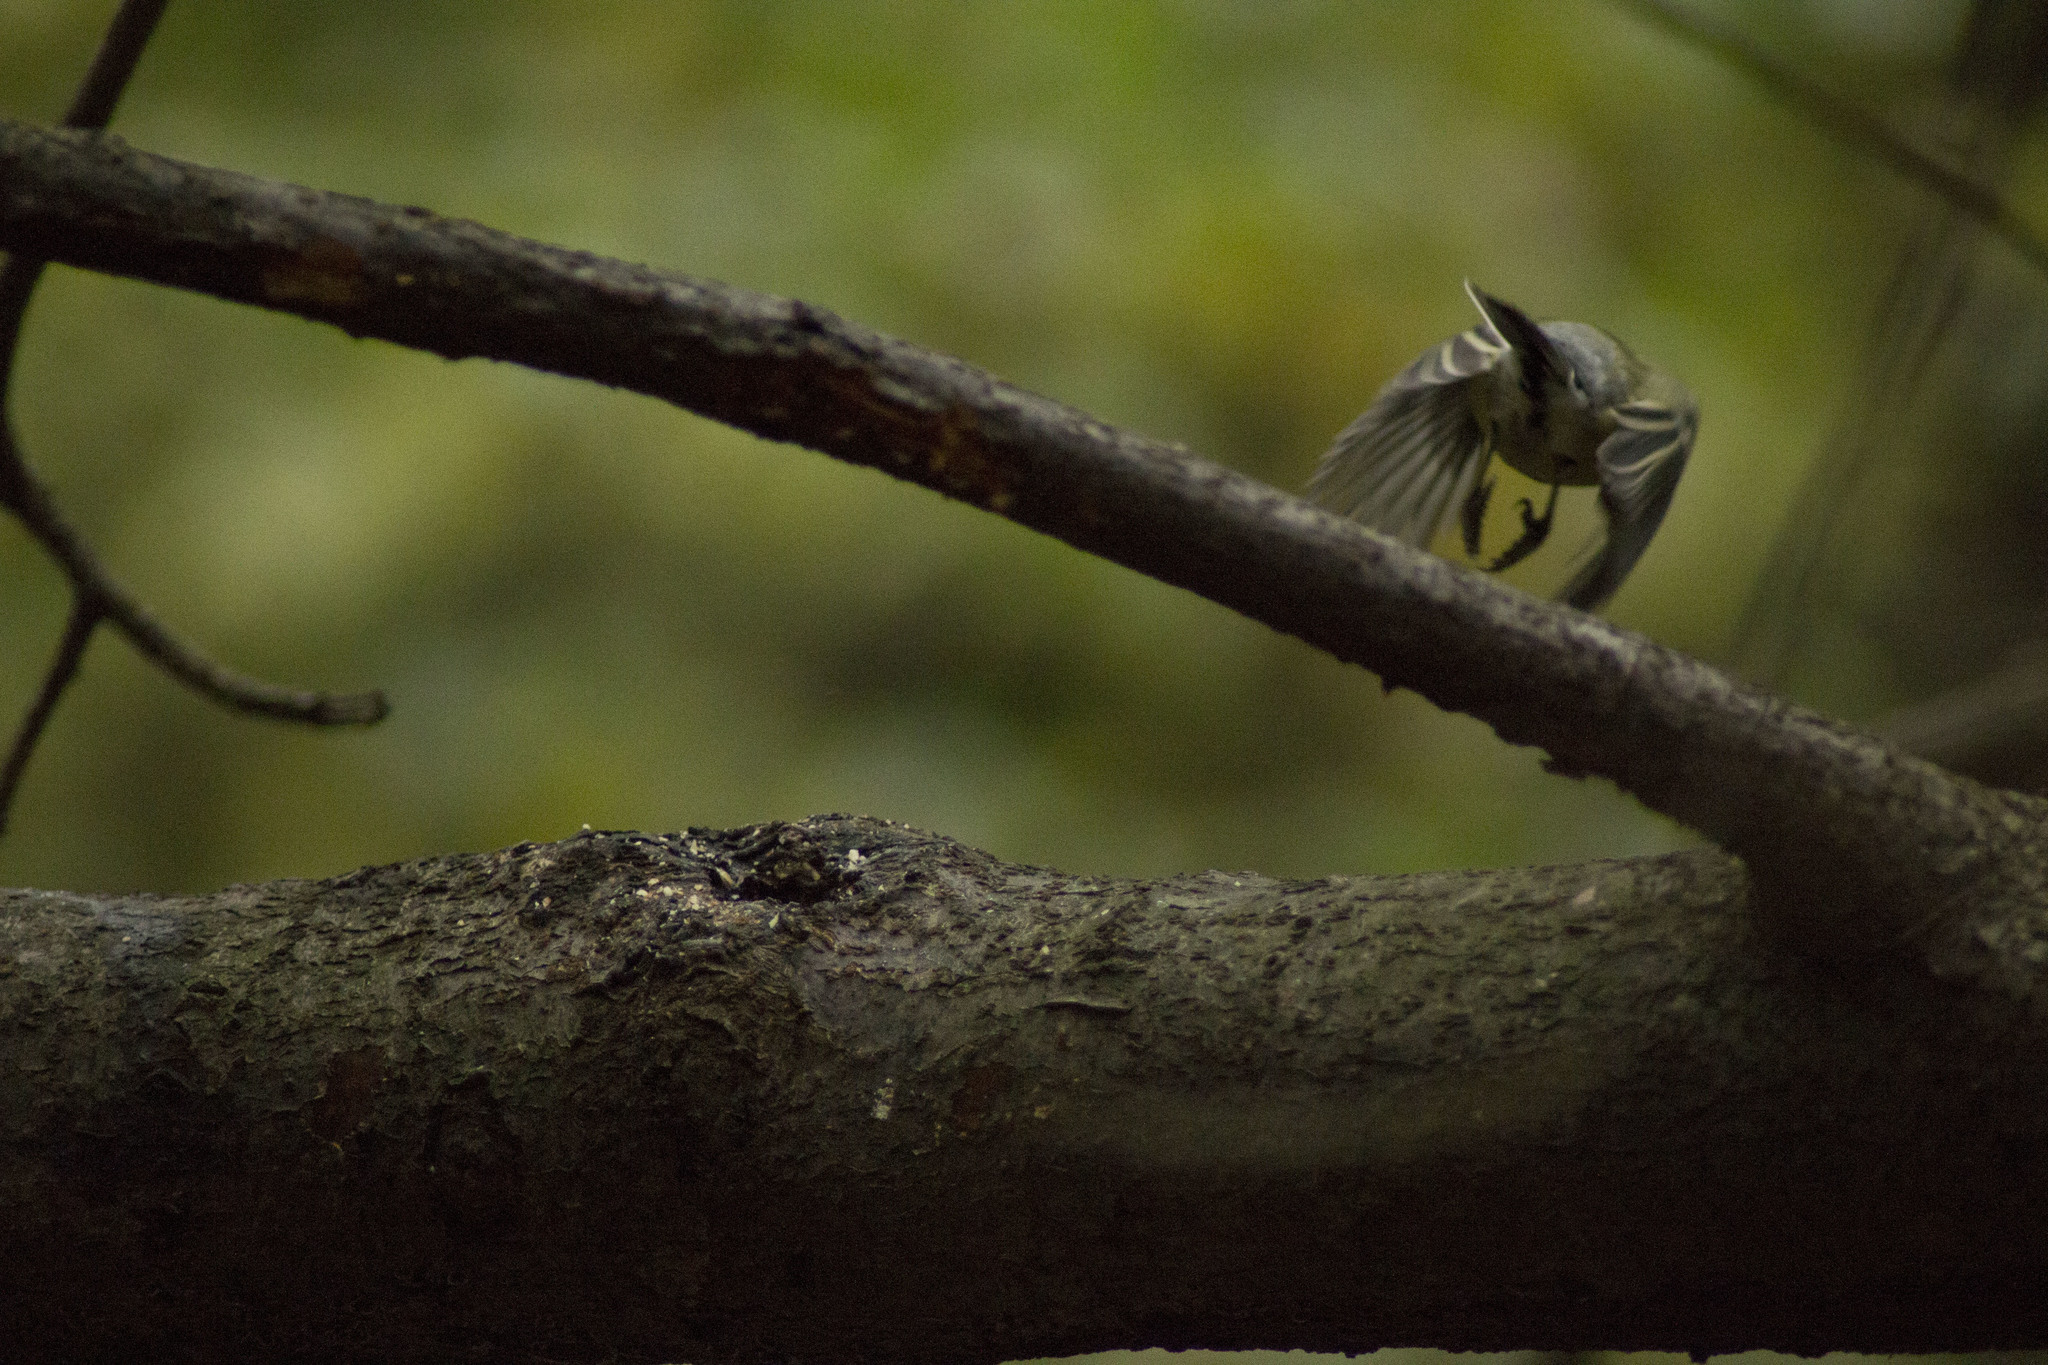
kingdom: Animalia
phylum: Chordata
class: Aves
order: Passeriformes
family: Paridae
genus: Parus
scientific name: Parus major
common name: Great tit
